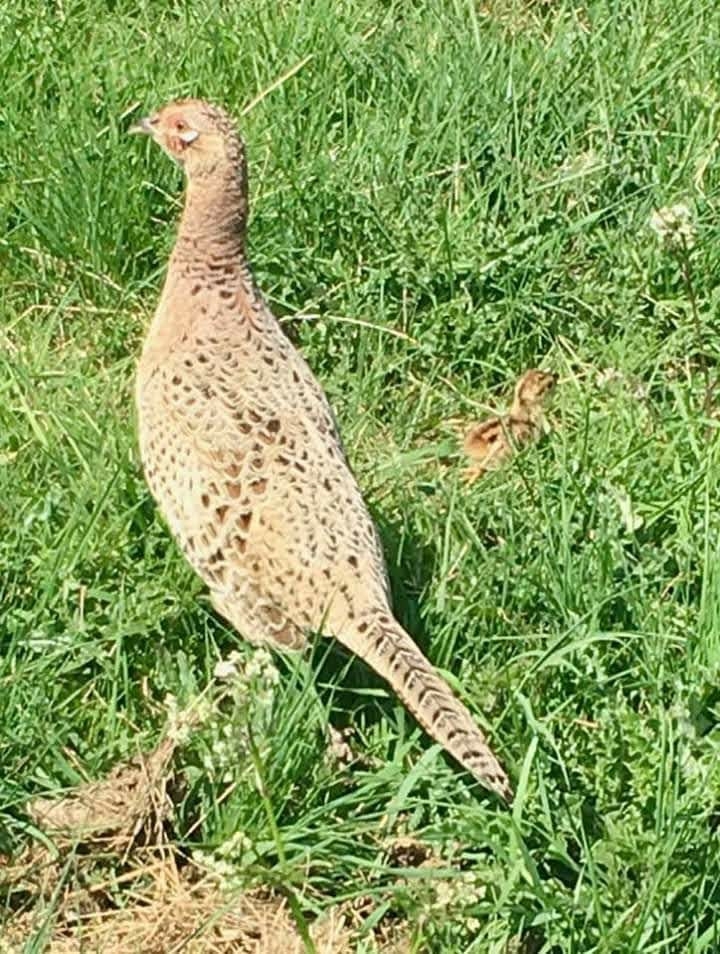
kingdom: Animalia
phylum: Chordata
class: Aves
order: Galliformes
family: Phasianidae
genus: Phasianus
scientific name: Phasianus colchicus
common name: Common pheasant
